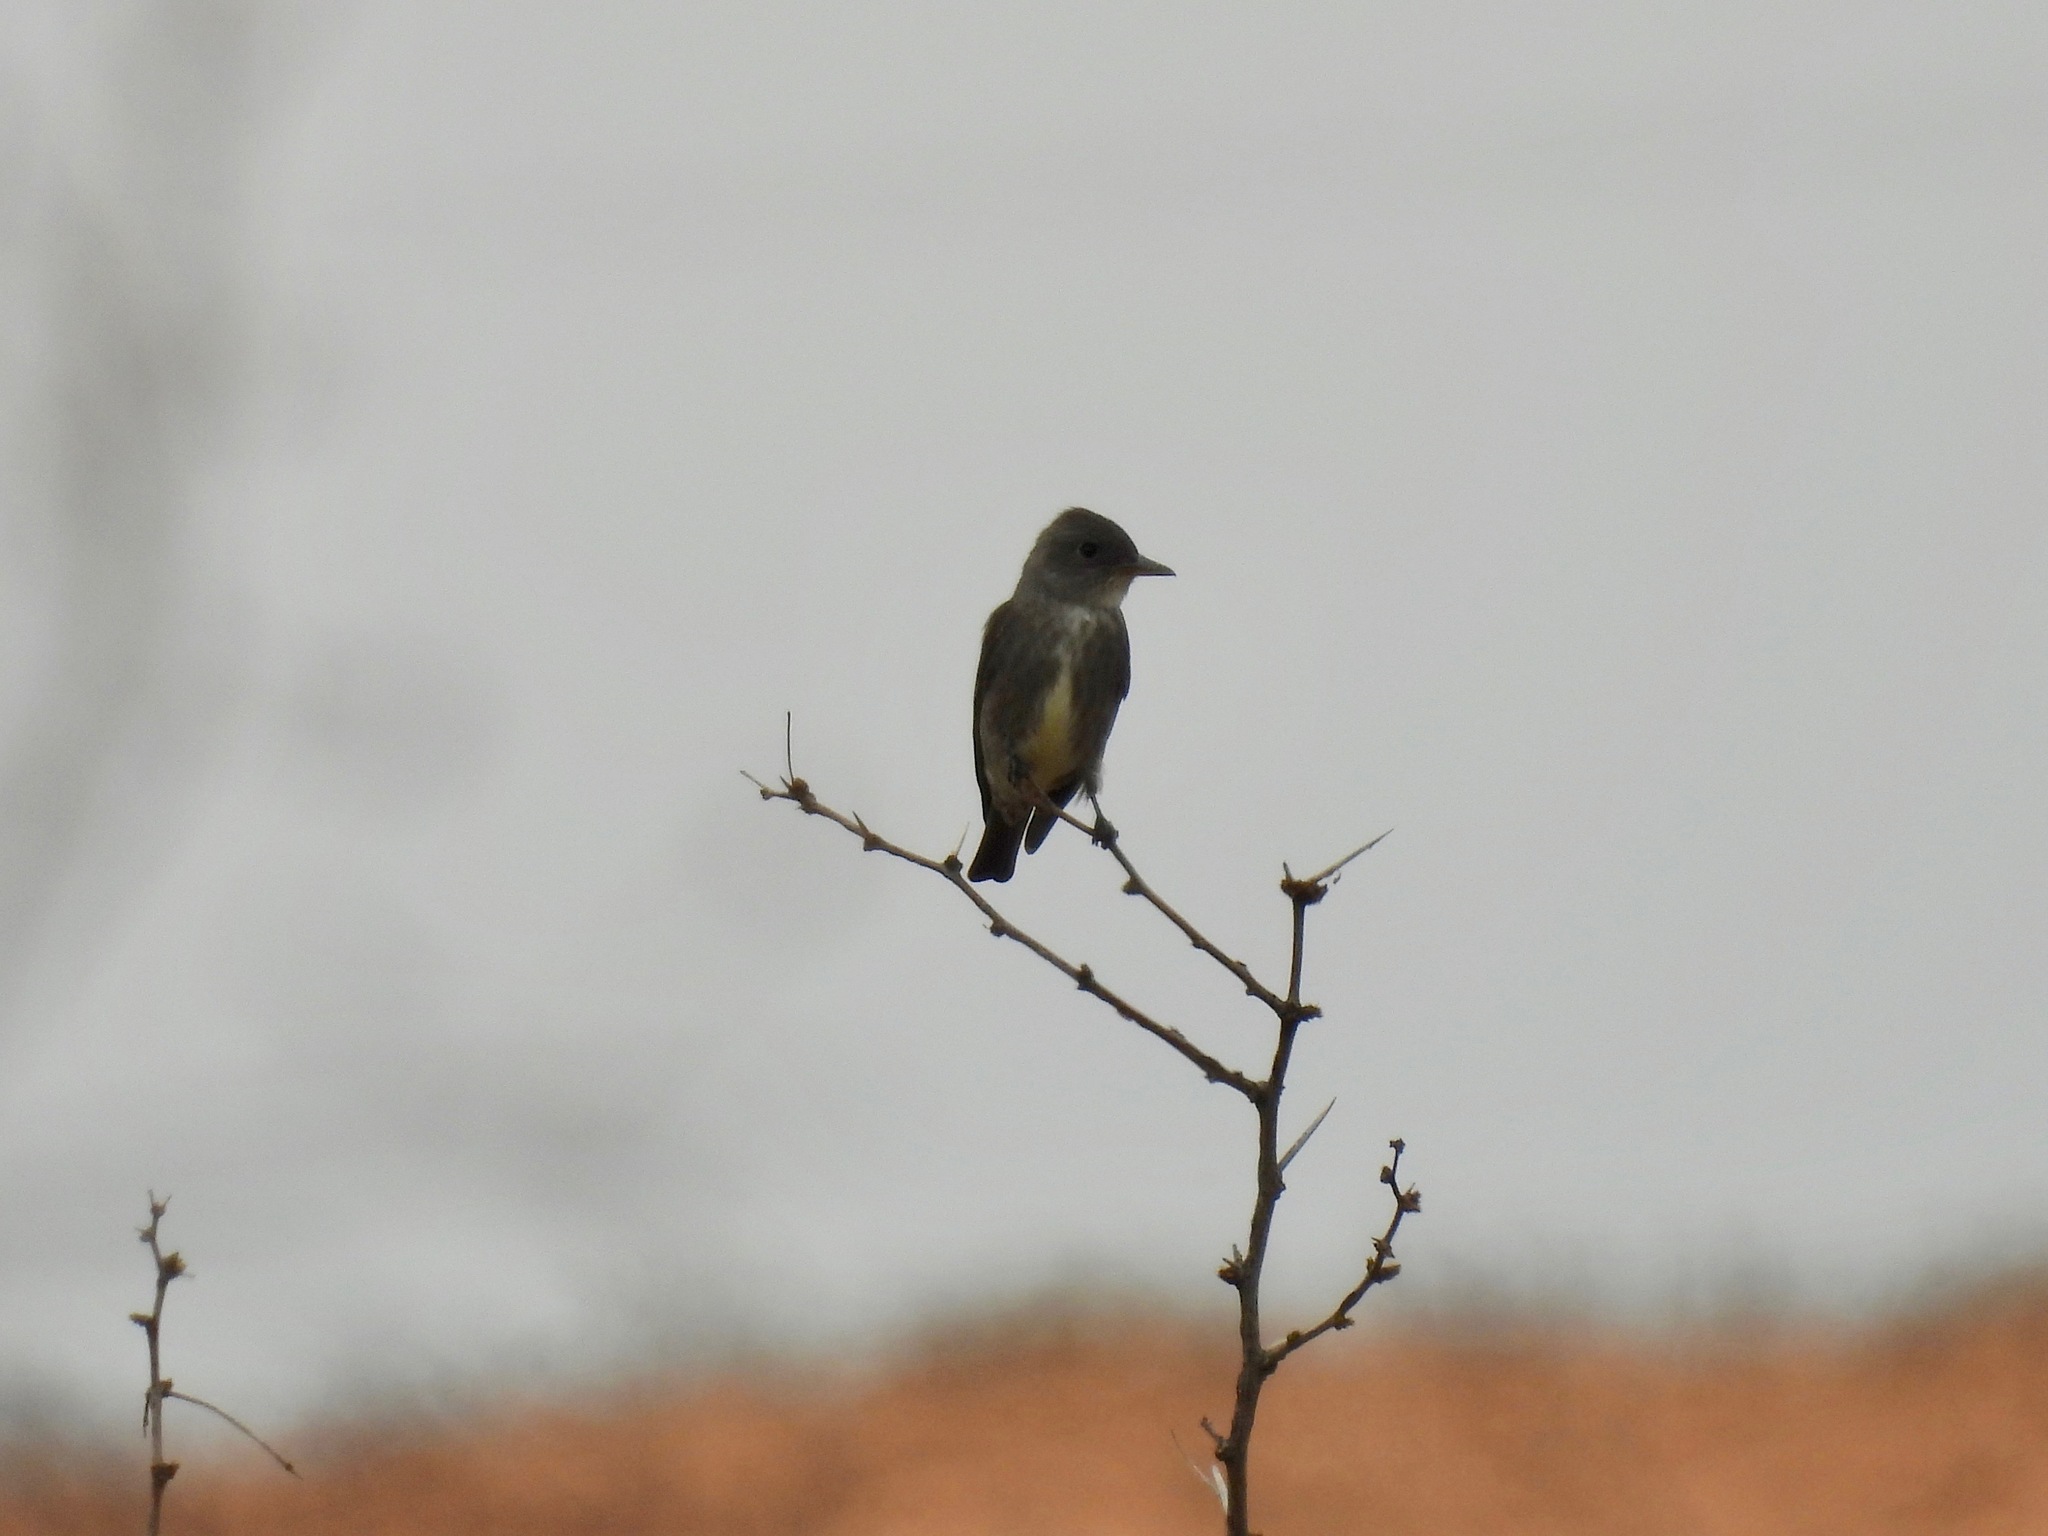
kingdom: Animalia
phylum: Chordata
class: Aves
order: Passeriformes
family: Tyrannidae
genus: Contopus
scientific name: Contopus cooperi
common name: Olive-sided flycatcher
